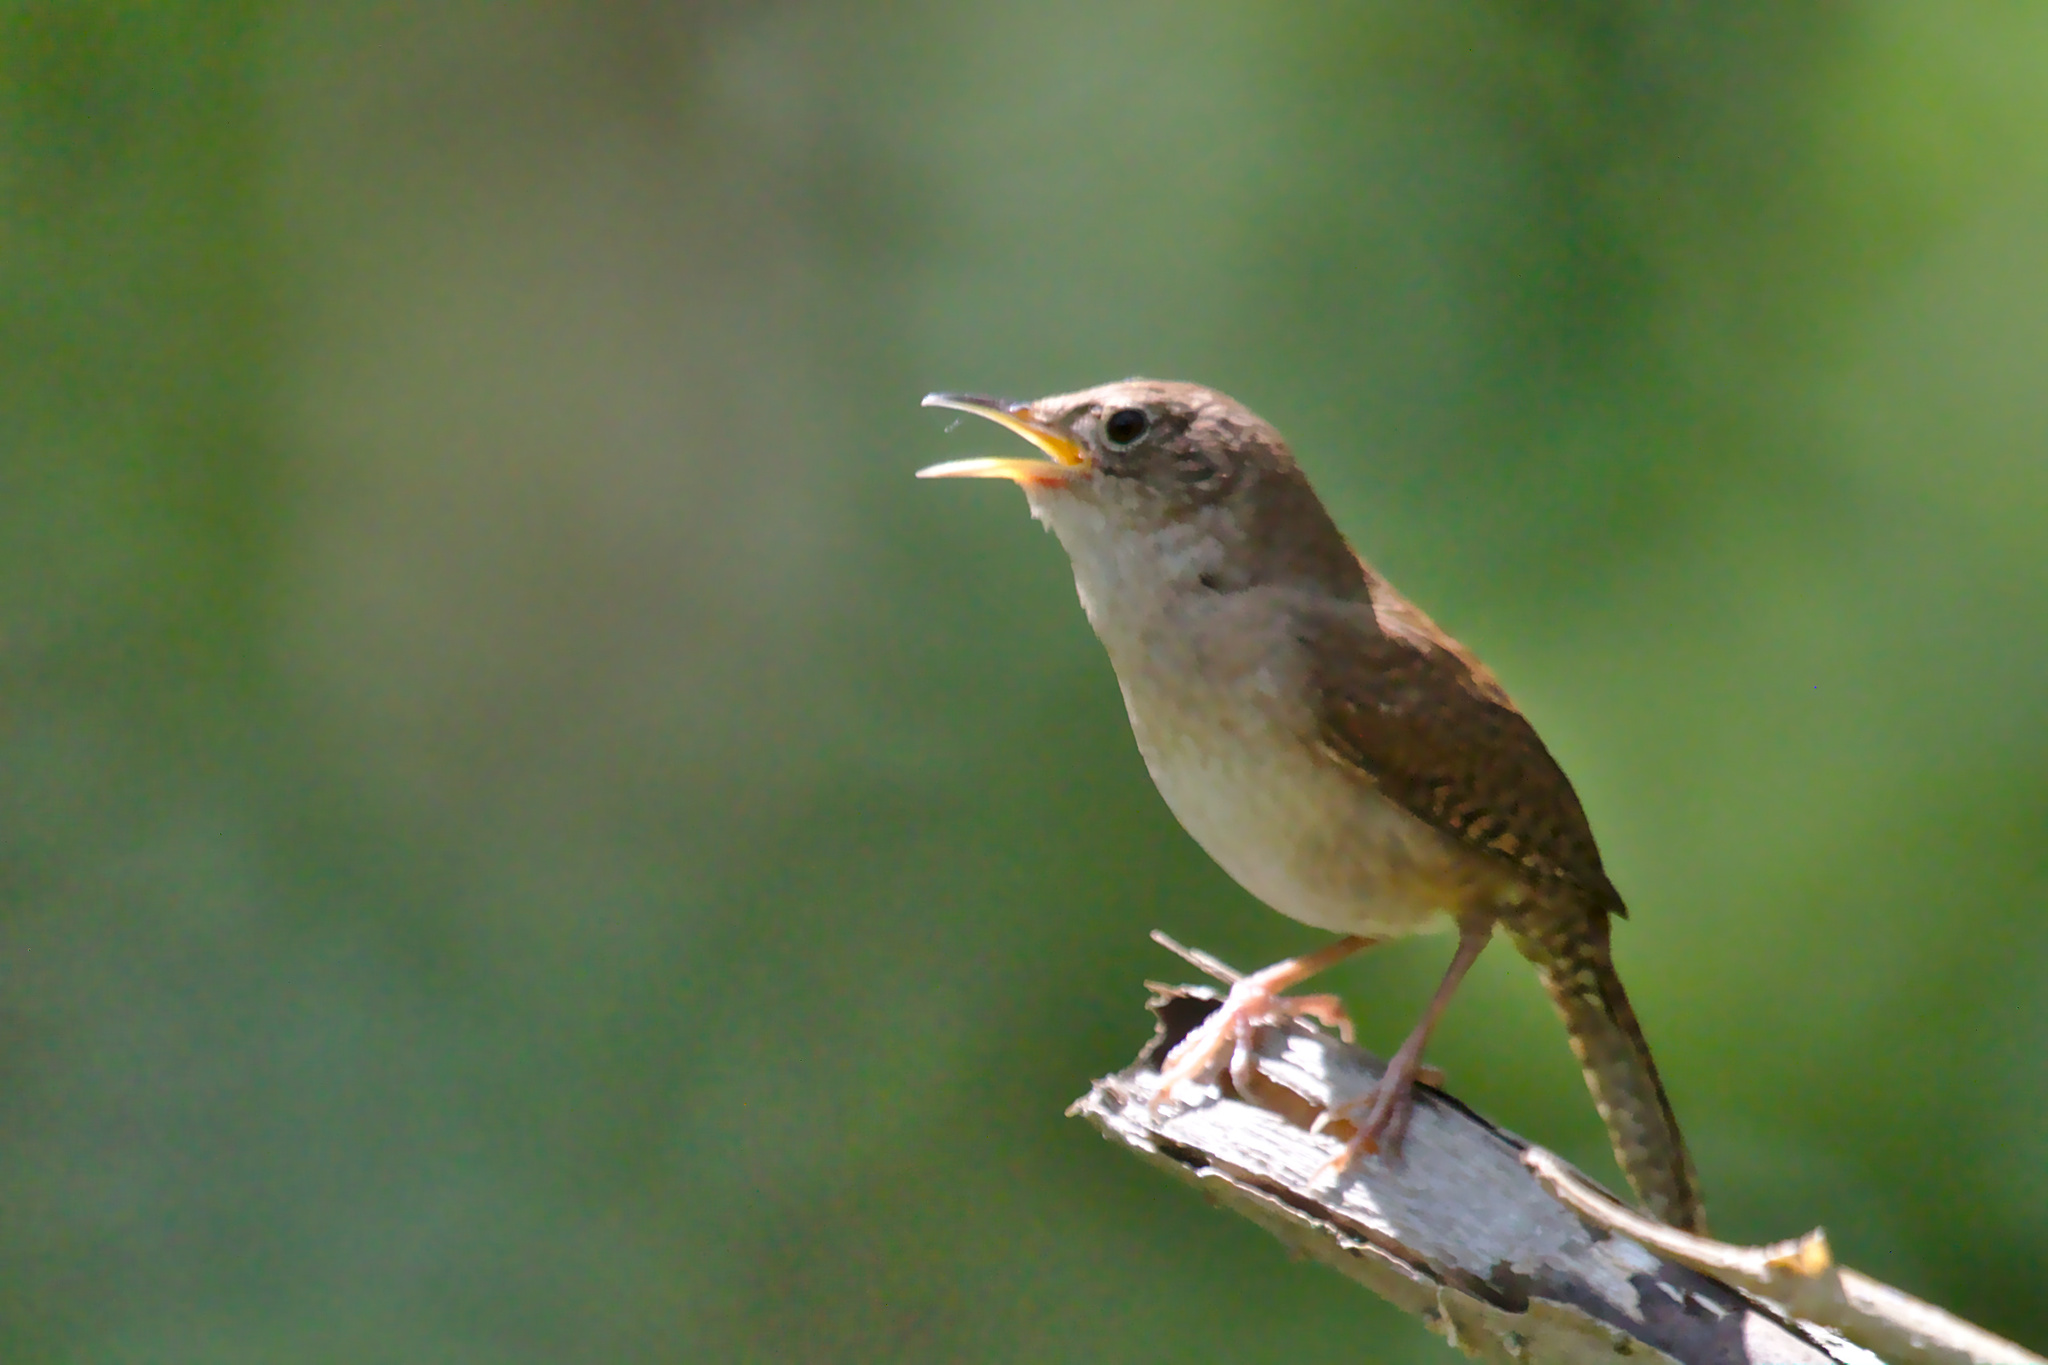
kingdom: Animalia
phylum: Chordata
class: Aves
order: Passeriformes
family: Troglodytidae
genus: Troglodytes
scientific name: Troglodytes aedon
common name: House wren
